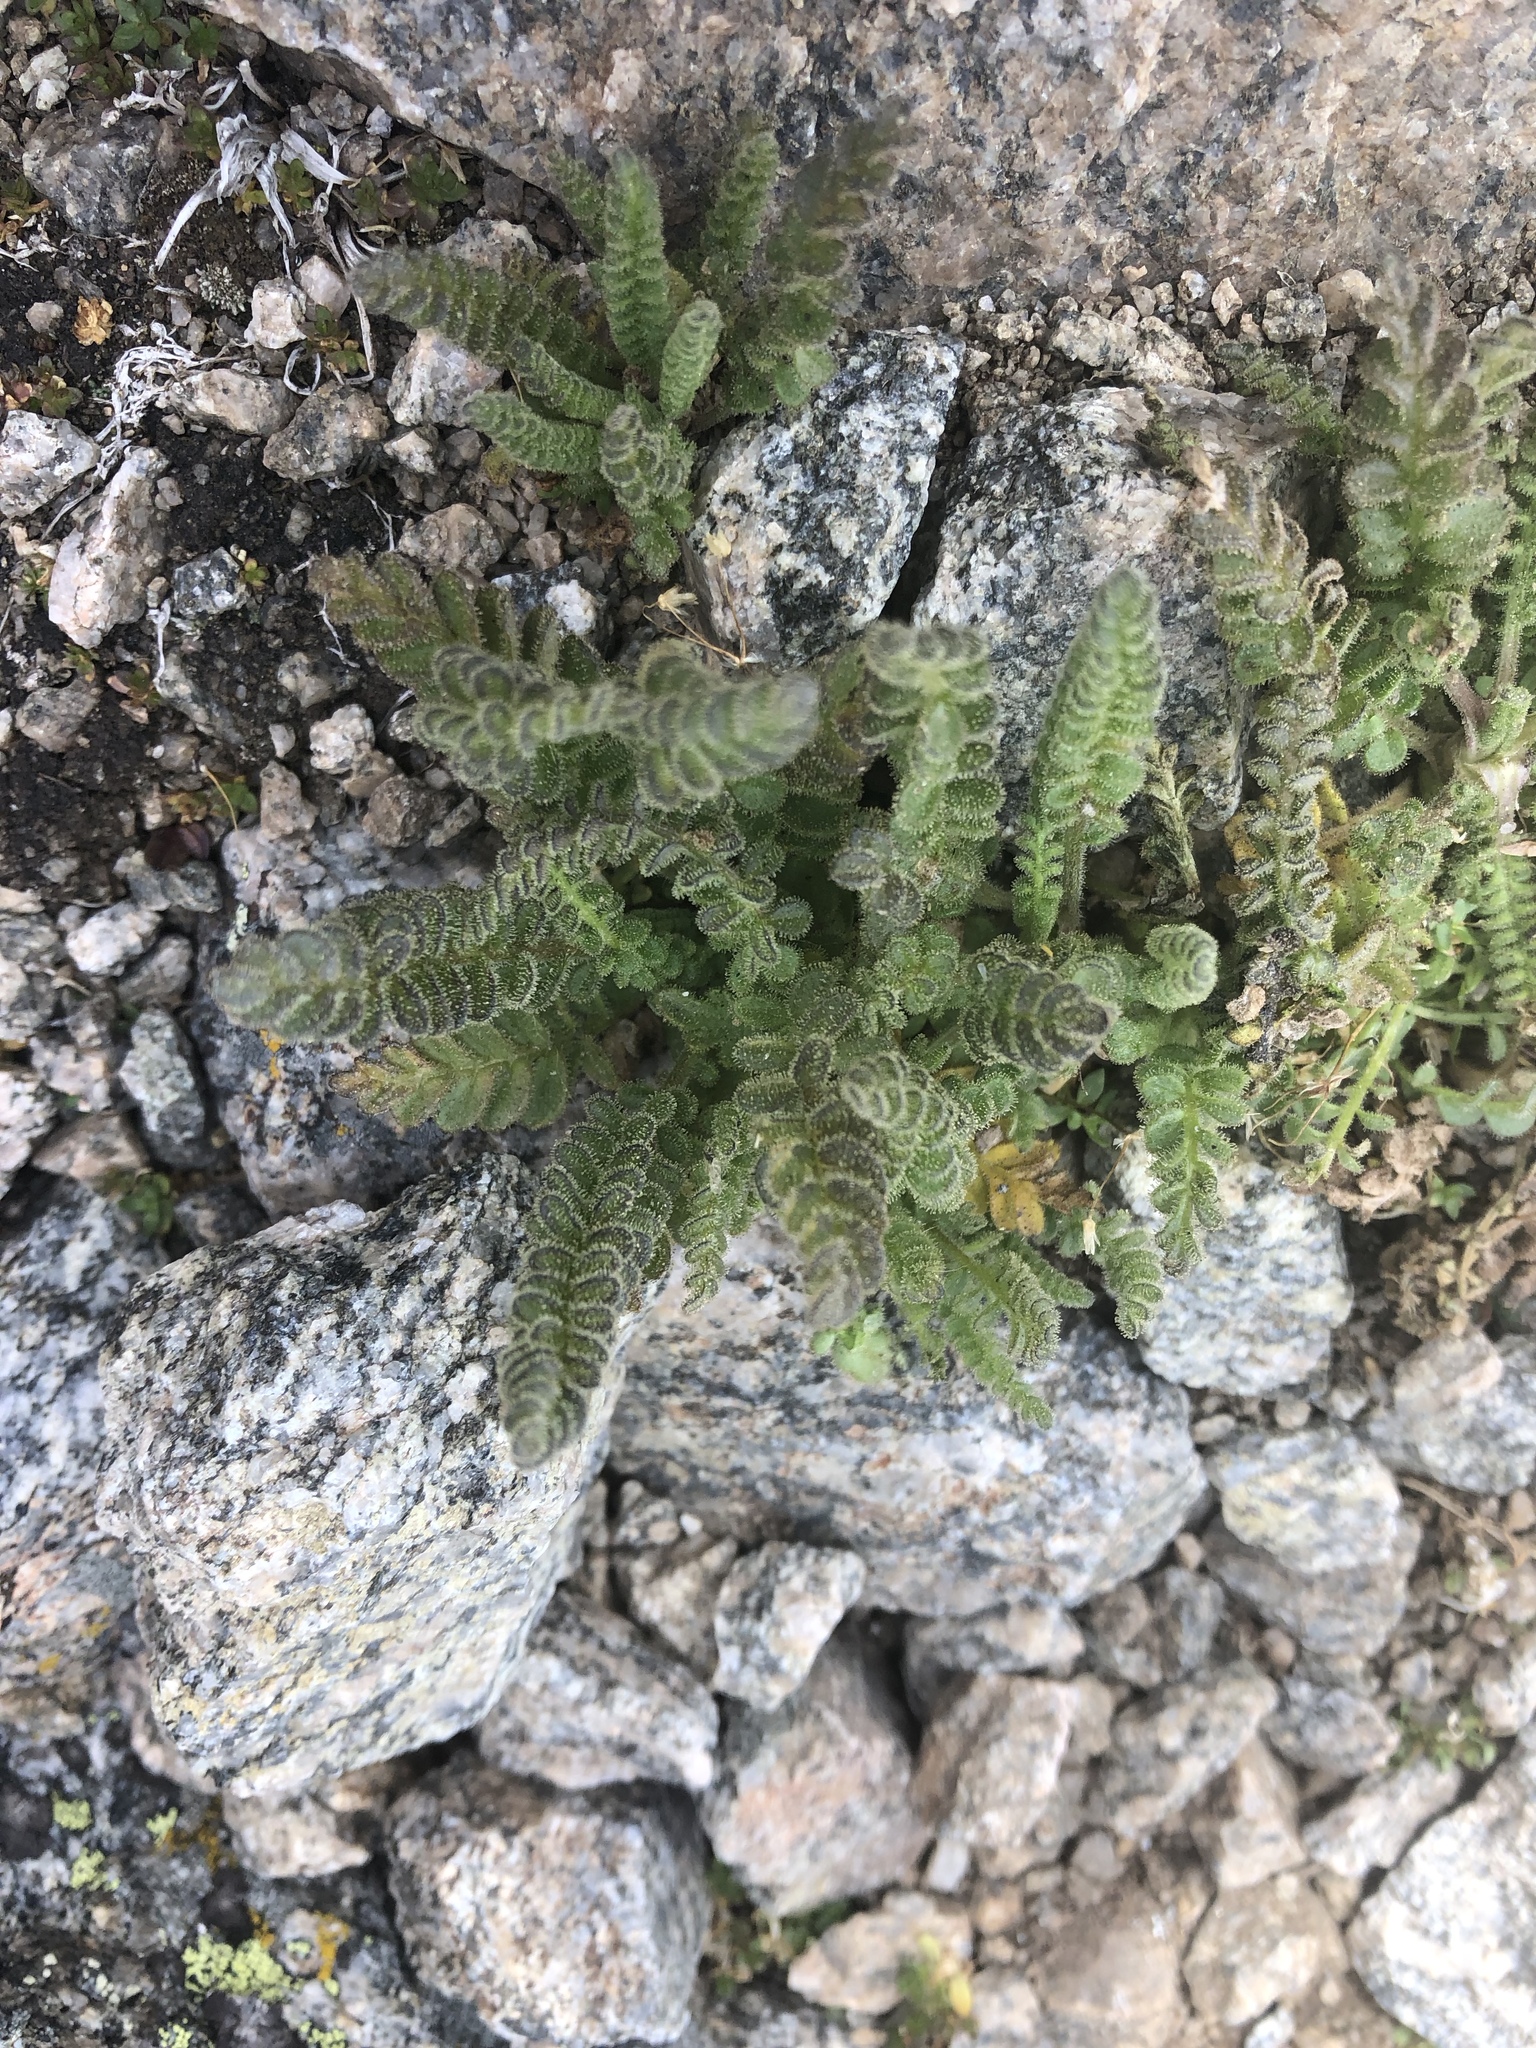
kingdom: Plantae
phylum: Tracheophyta
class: Magnoliopsida
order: Ericales
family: Polemoniaceae
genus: Polemonium
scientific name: Polemonium viscosum
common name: Skunk jacob's-ladder
